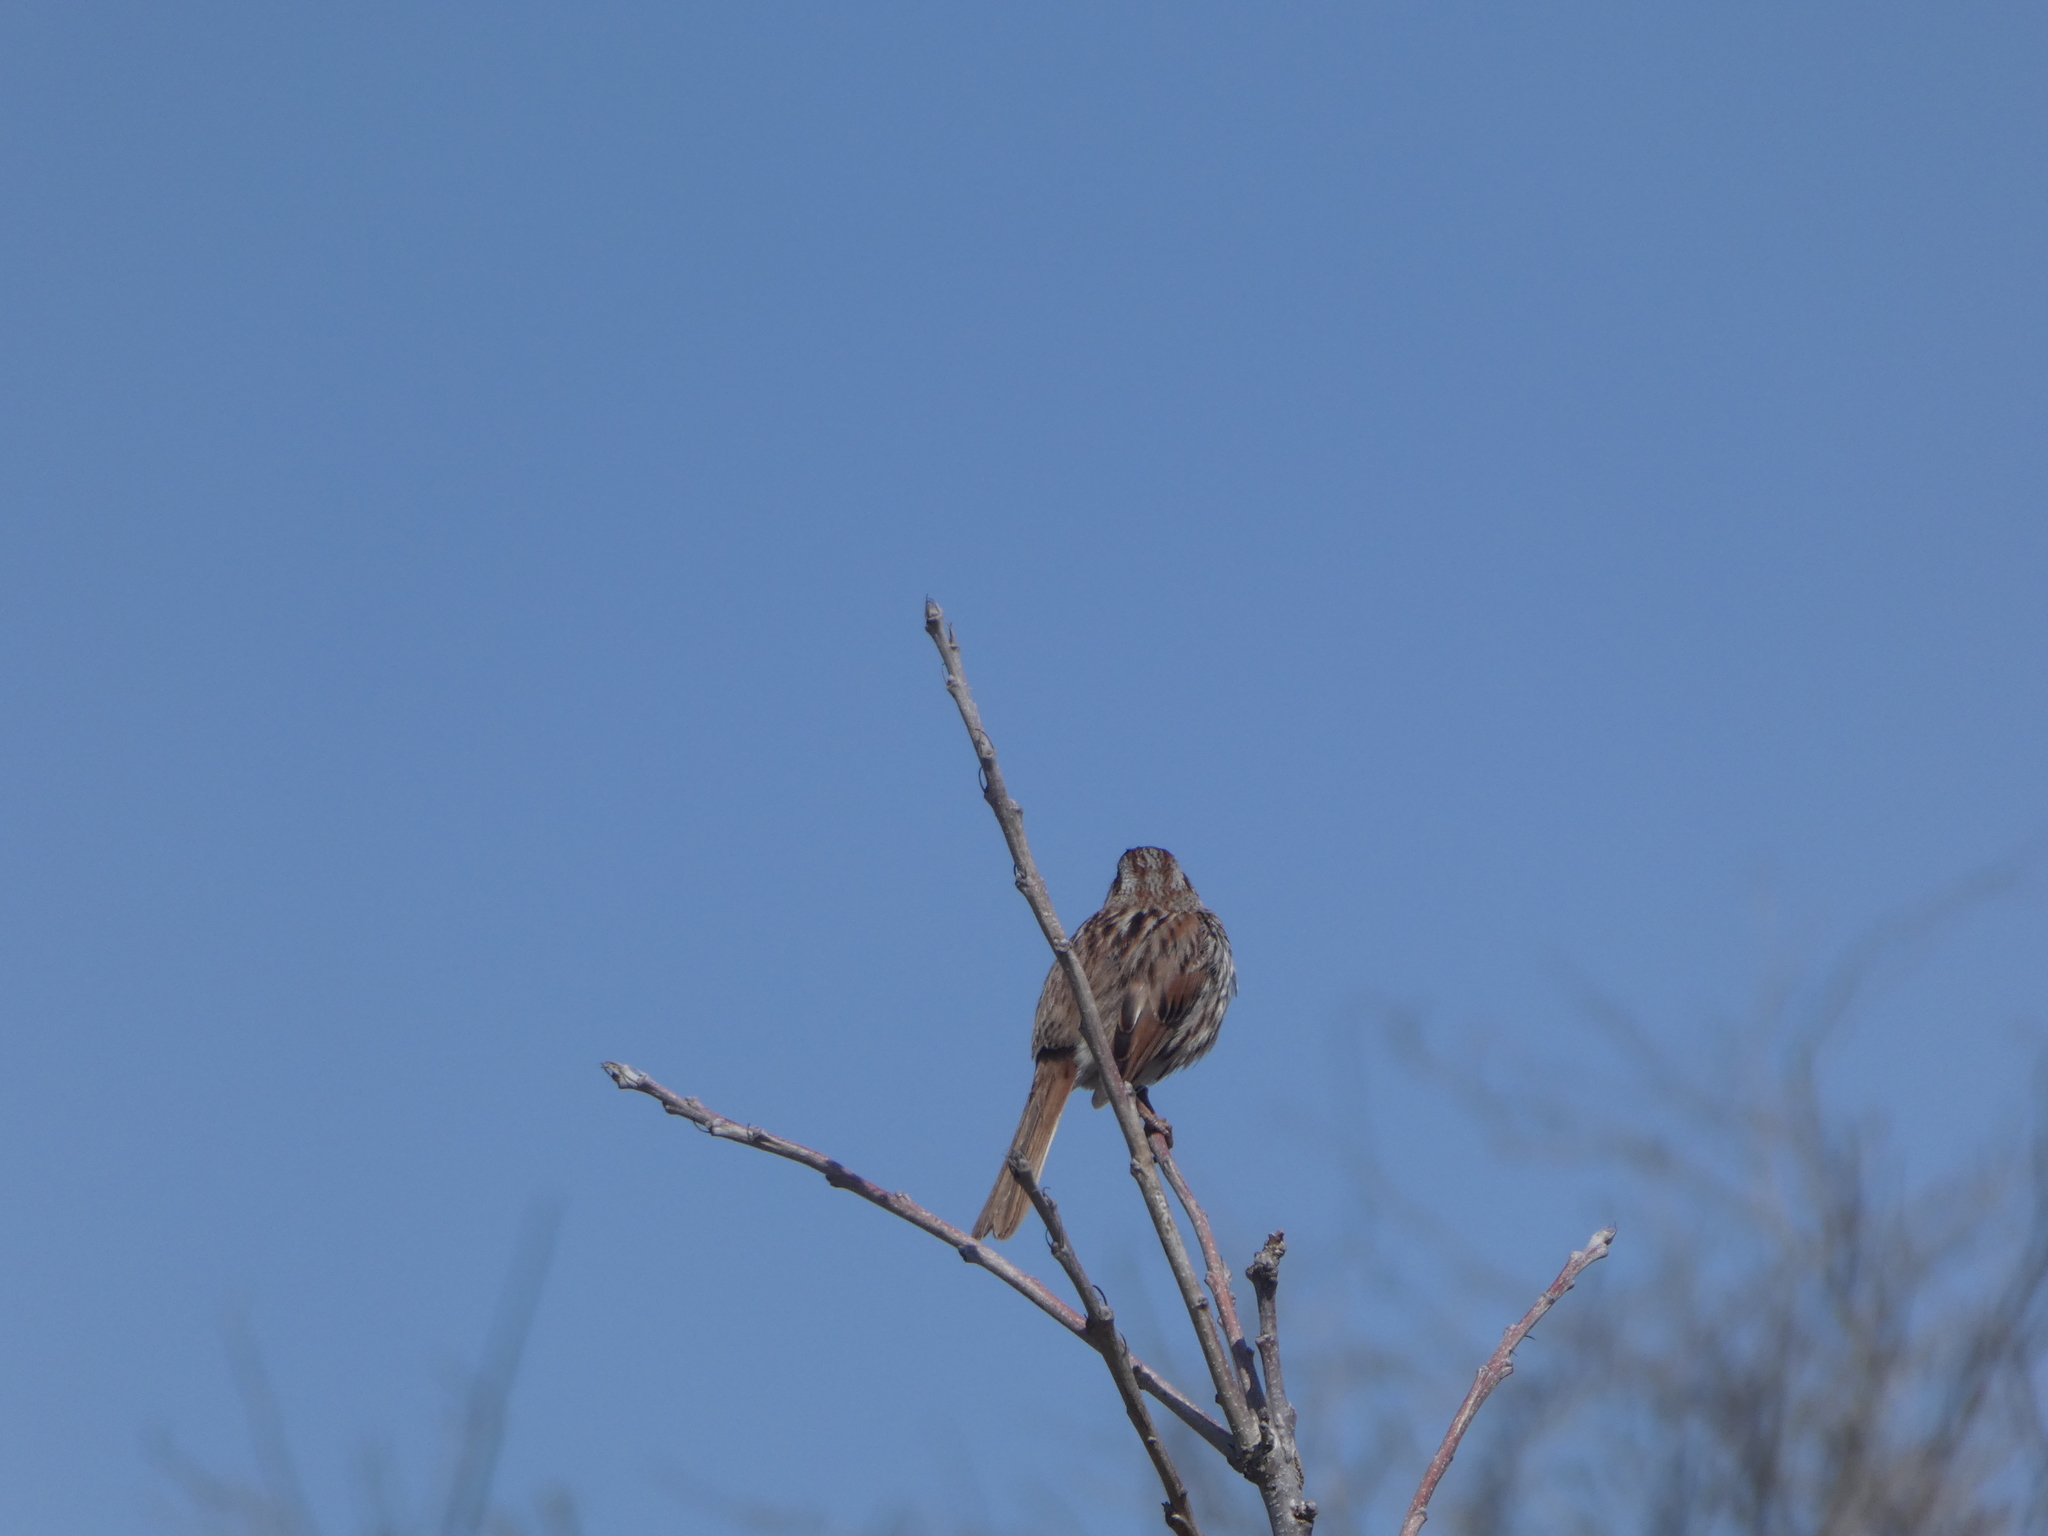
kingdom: Animalia
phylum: Chordata
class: Aves
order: Passeriformes
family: Passerellidae
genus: Melospiza
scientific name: Melospiza melodia
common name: Song sparrow
